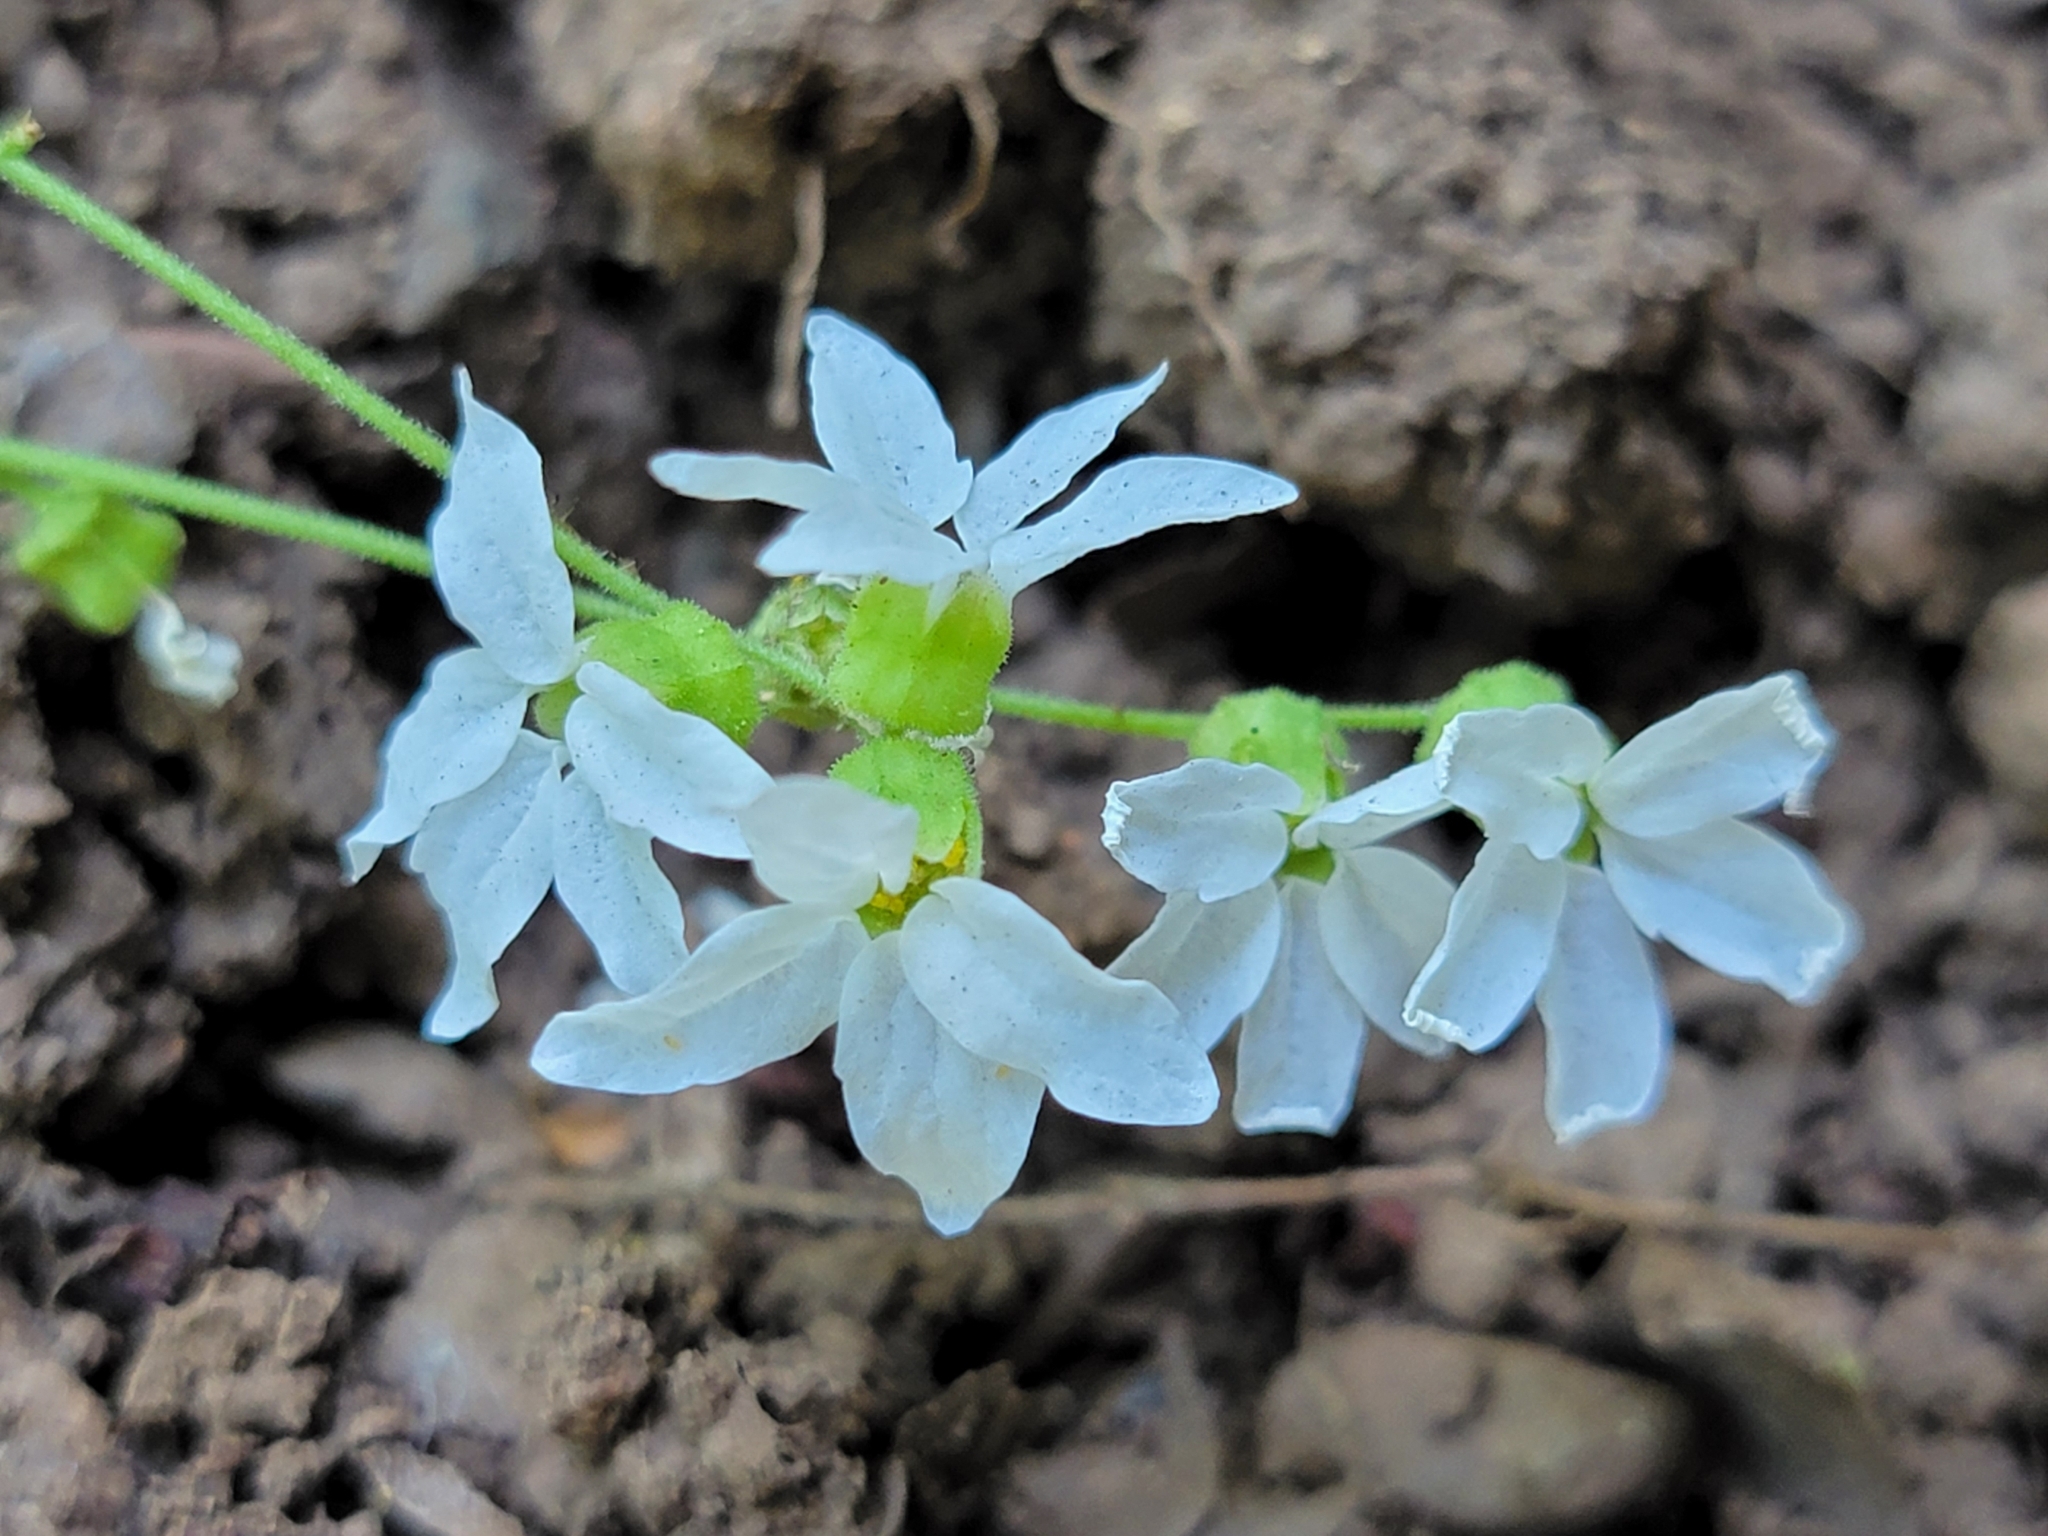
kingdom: Plantae
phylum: Tracheophyta
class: Magnoliopsida
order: Saxifragales
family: Saxifragaceae
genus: Lithophragma
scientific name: Lithophragma heterophyllum
